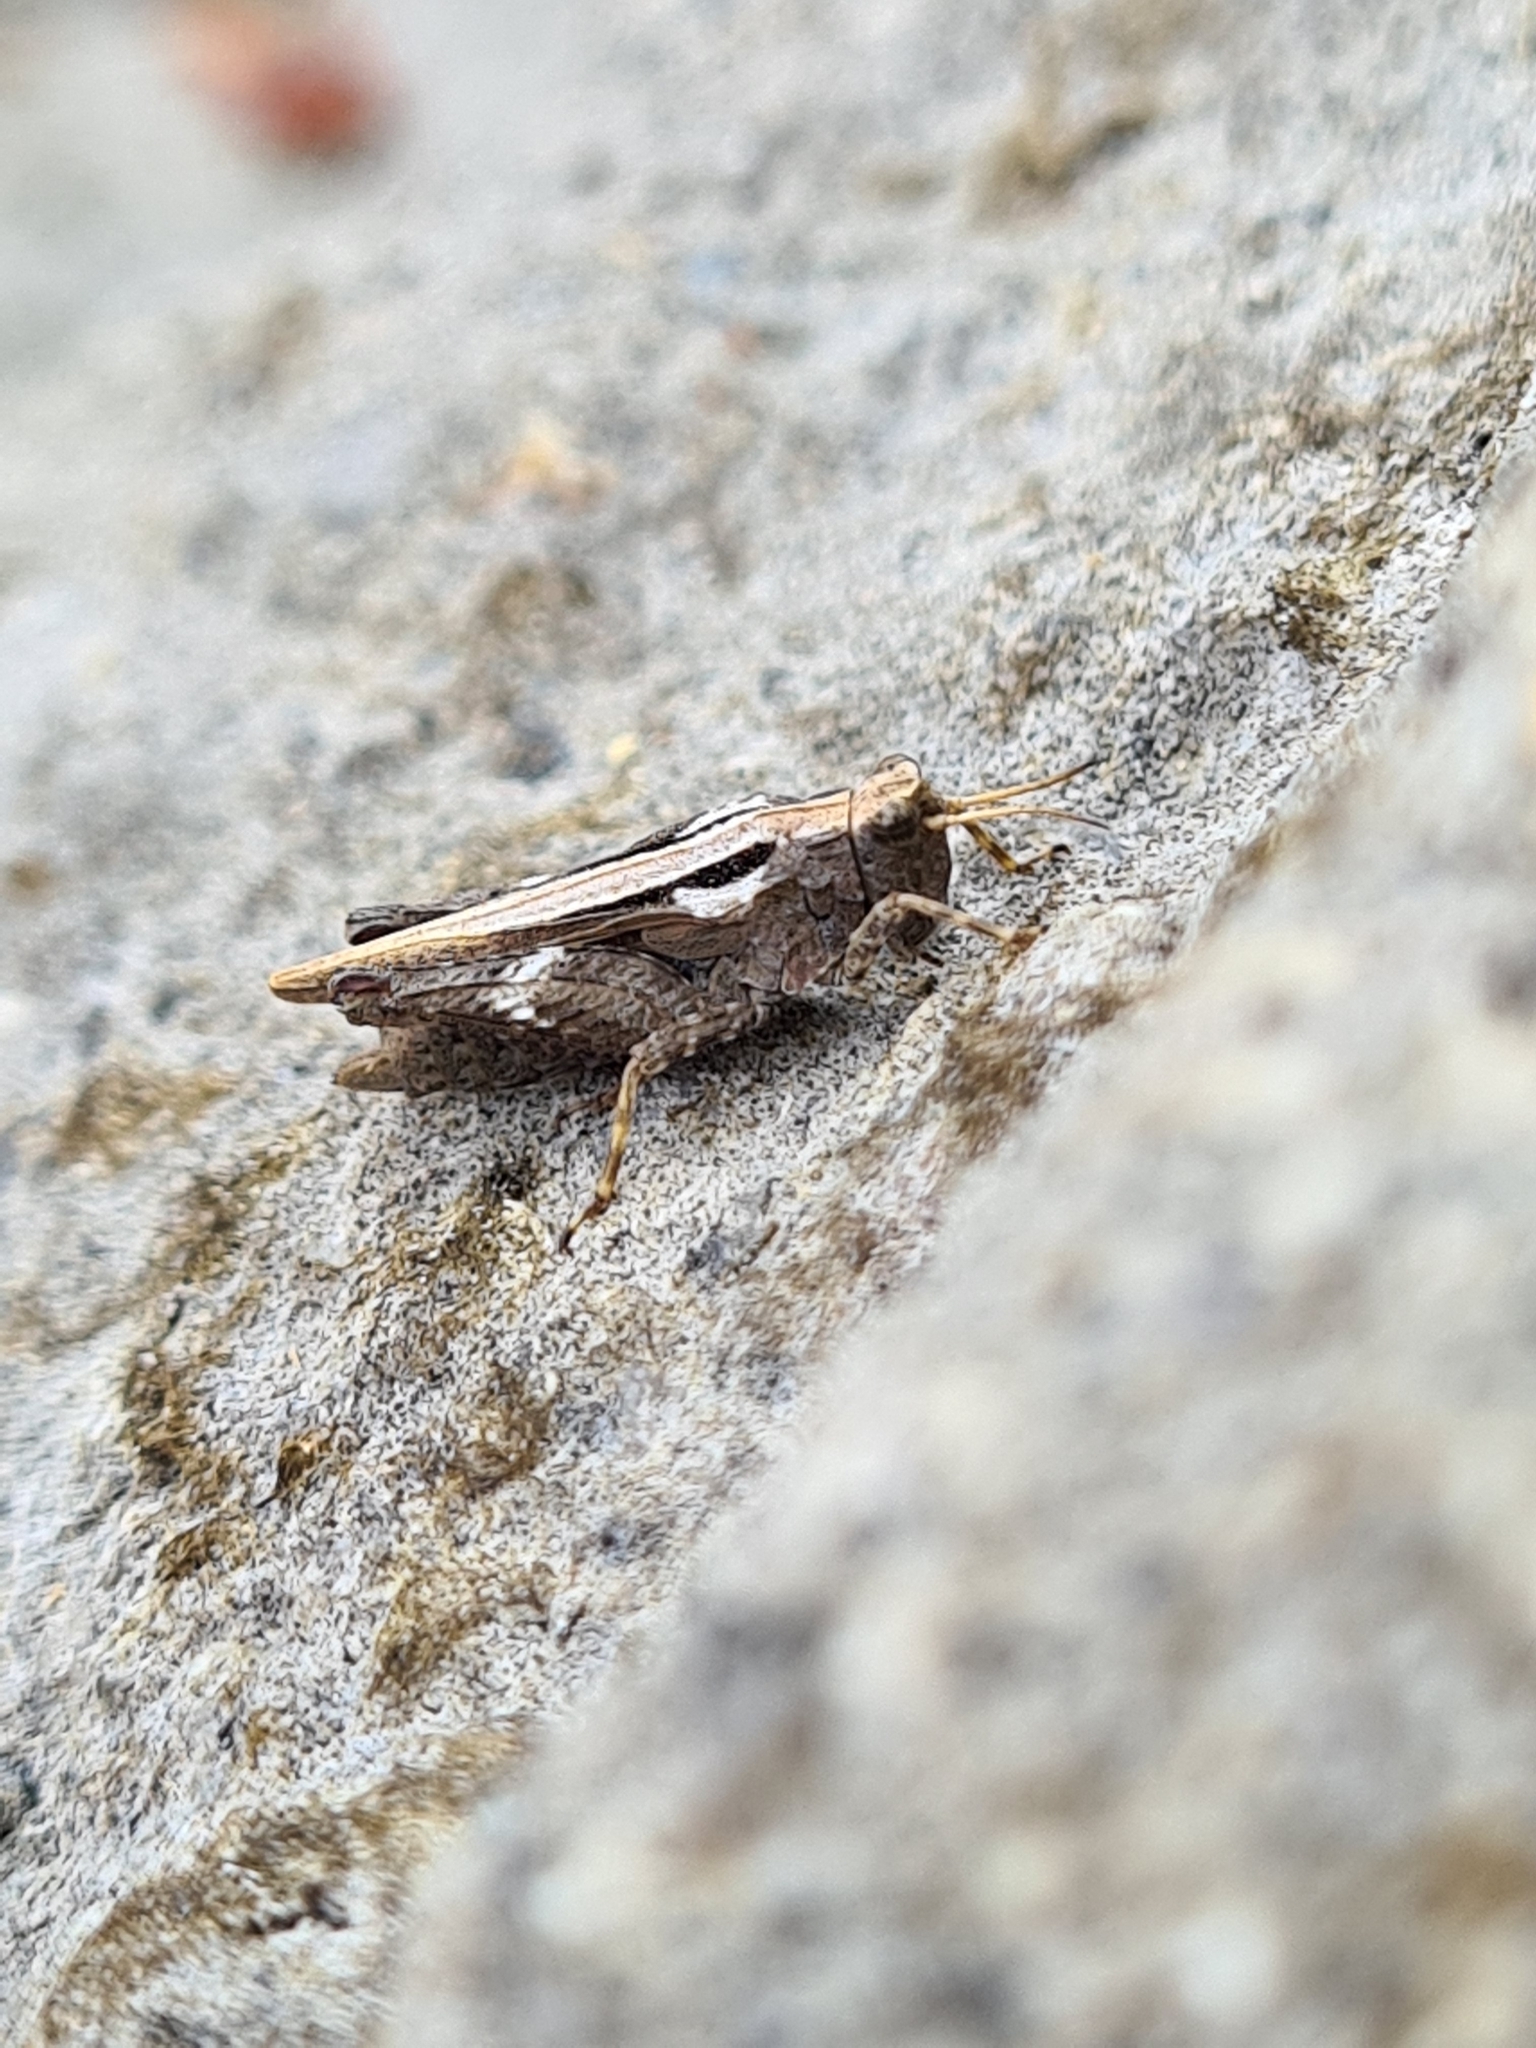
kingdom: Animalia
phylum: Arthropoda
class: Insecta
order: Orthoptera
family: Tetrigidae
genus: Tetrix
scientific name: Tetrix subulata
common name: Slender ground-hopper
